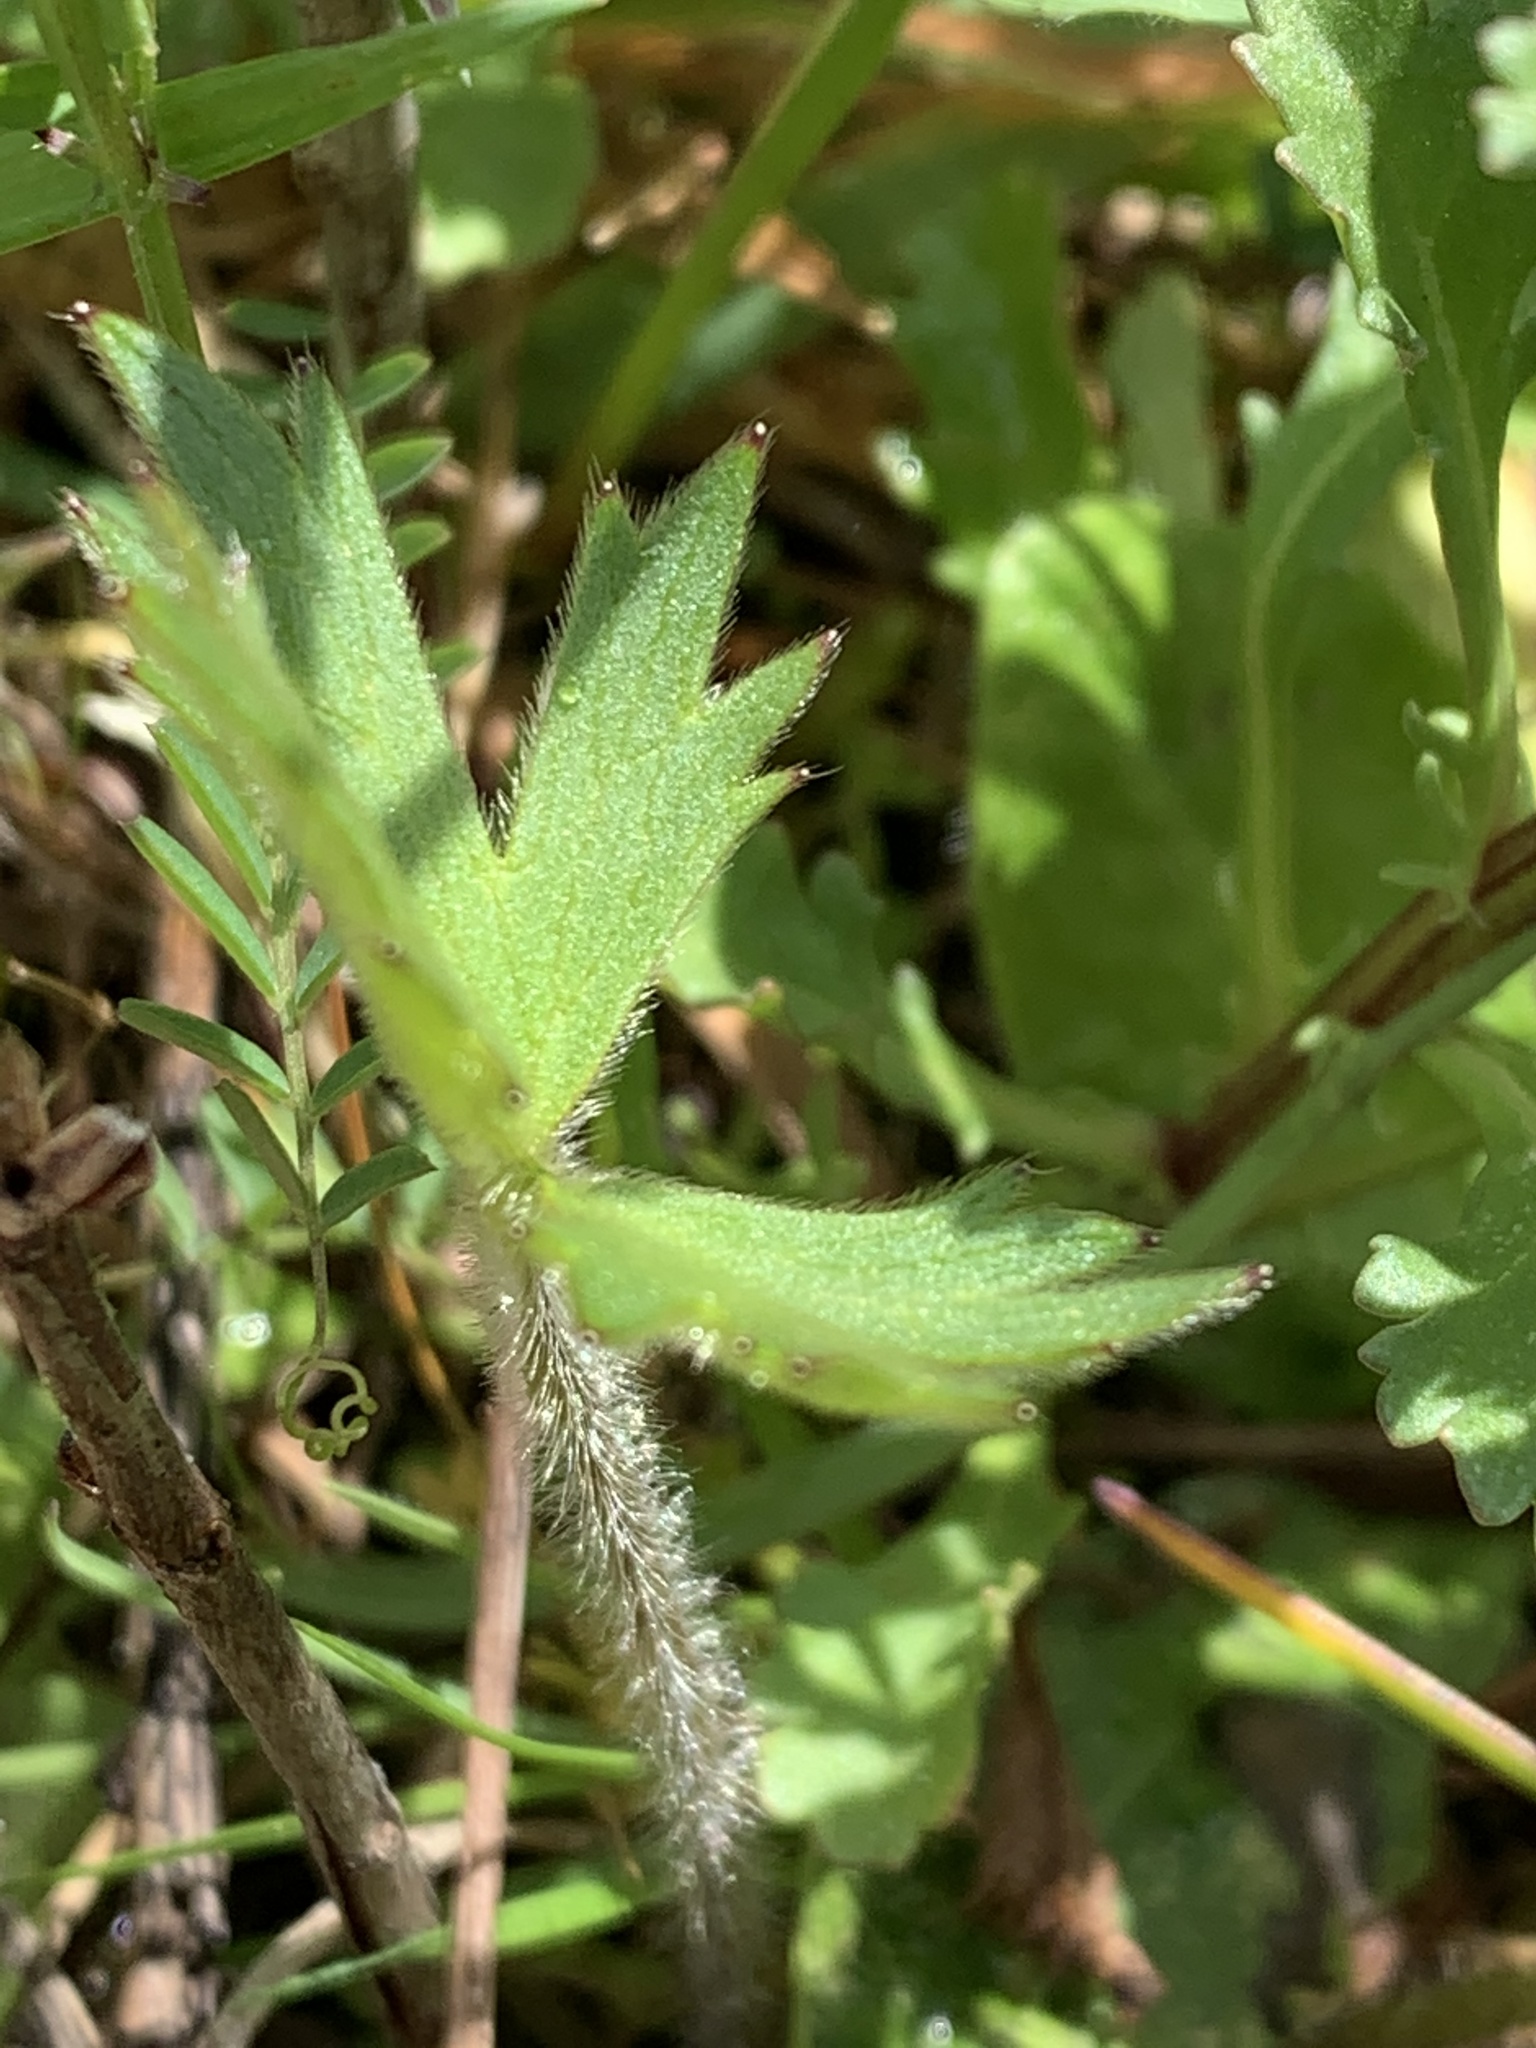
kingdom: Plantae
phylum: Tracheophyta
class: Magnoliopsida
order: Ranunculales
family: Ranunculaceae
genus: Ranunculus
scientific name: Ranunculus occidentalis
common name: Western buttercup
